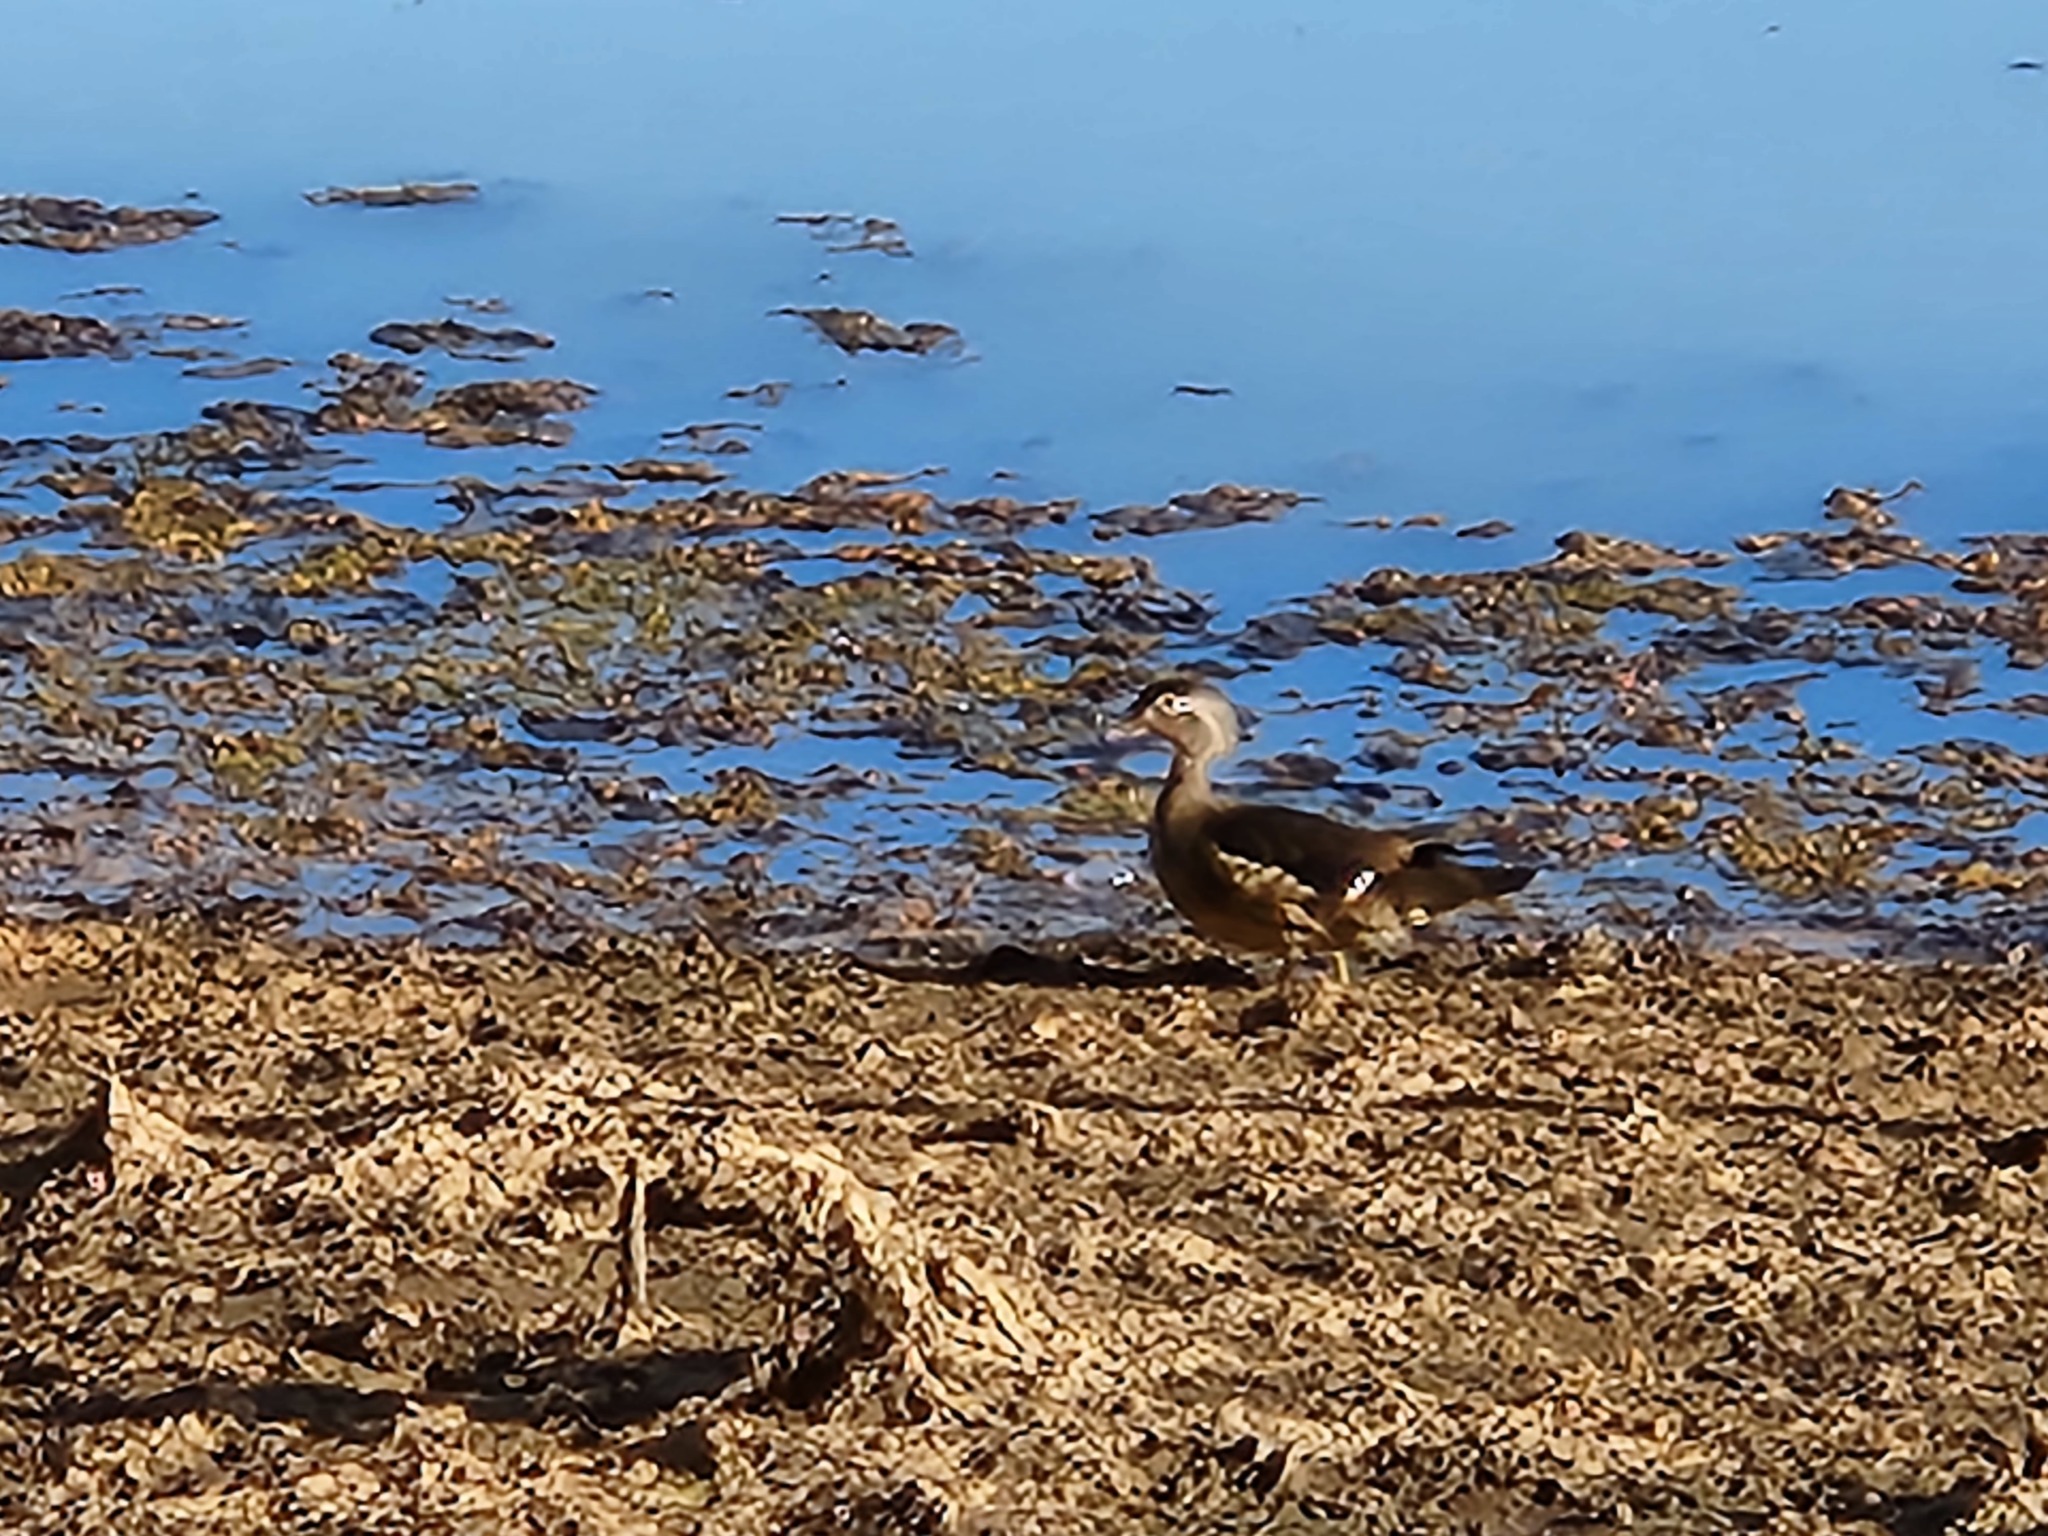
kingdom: Animalia
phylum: Chordata
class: Aves
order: Anseriformes
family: Anatidae
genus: Aix
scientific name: Aix sponsa
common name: Wood duck
